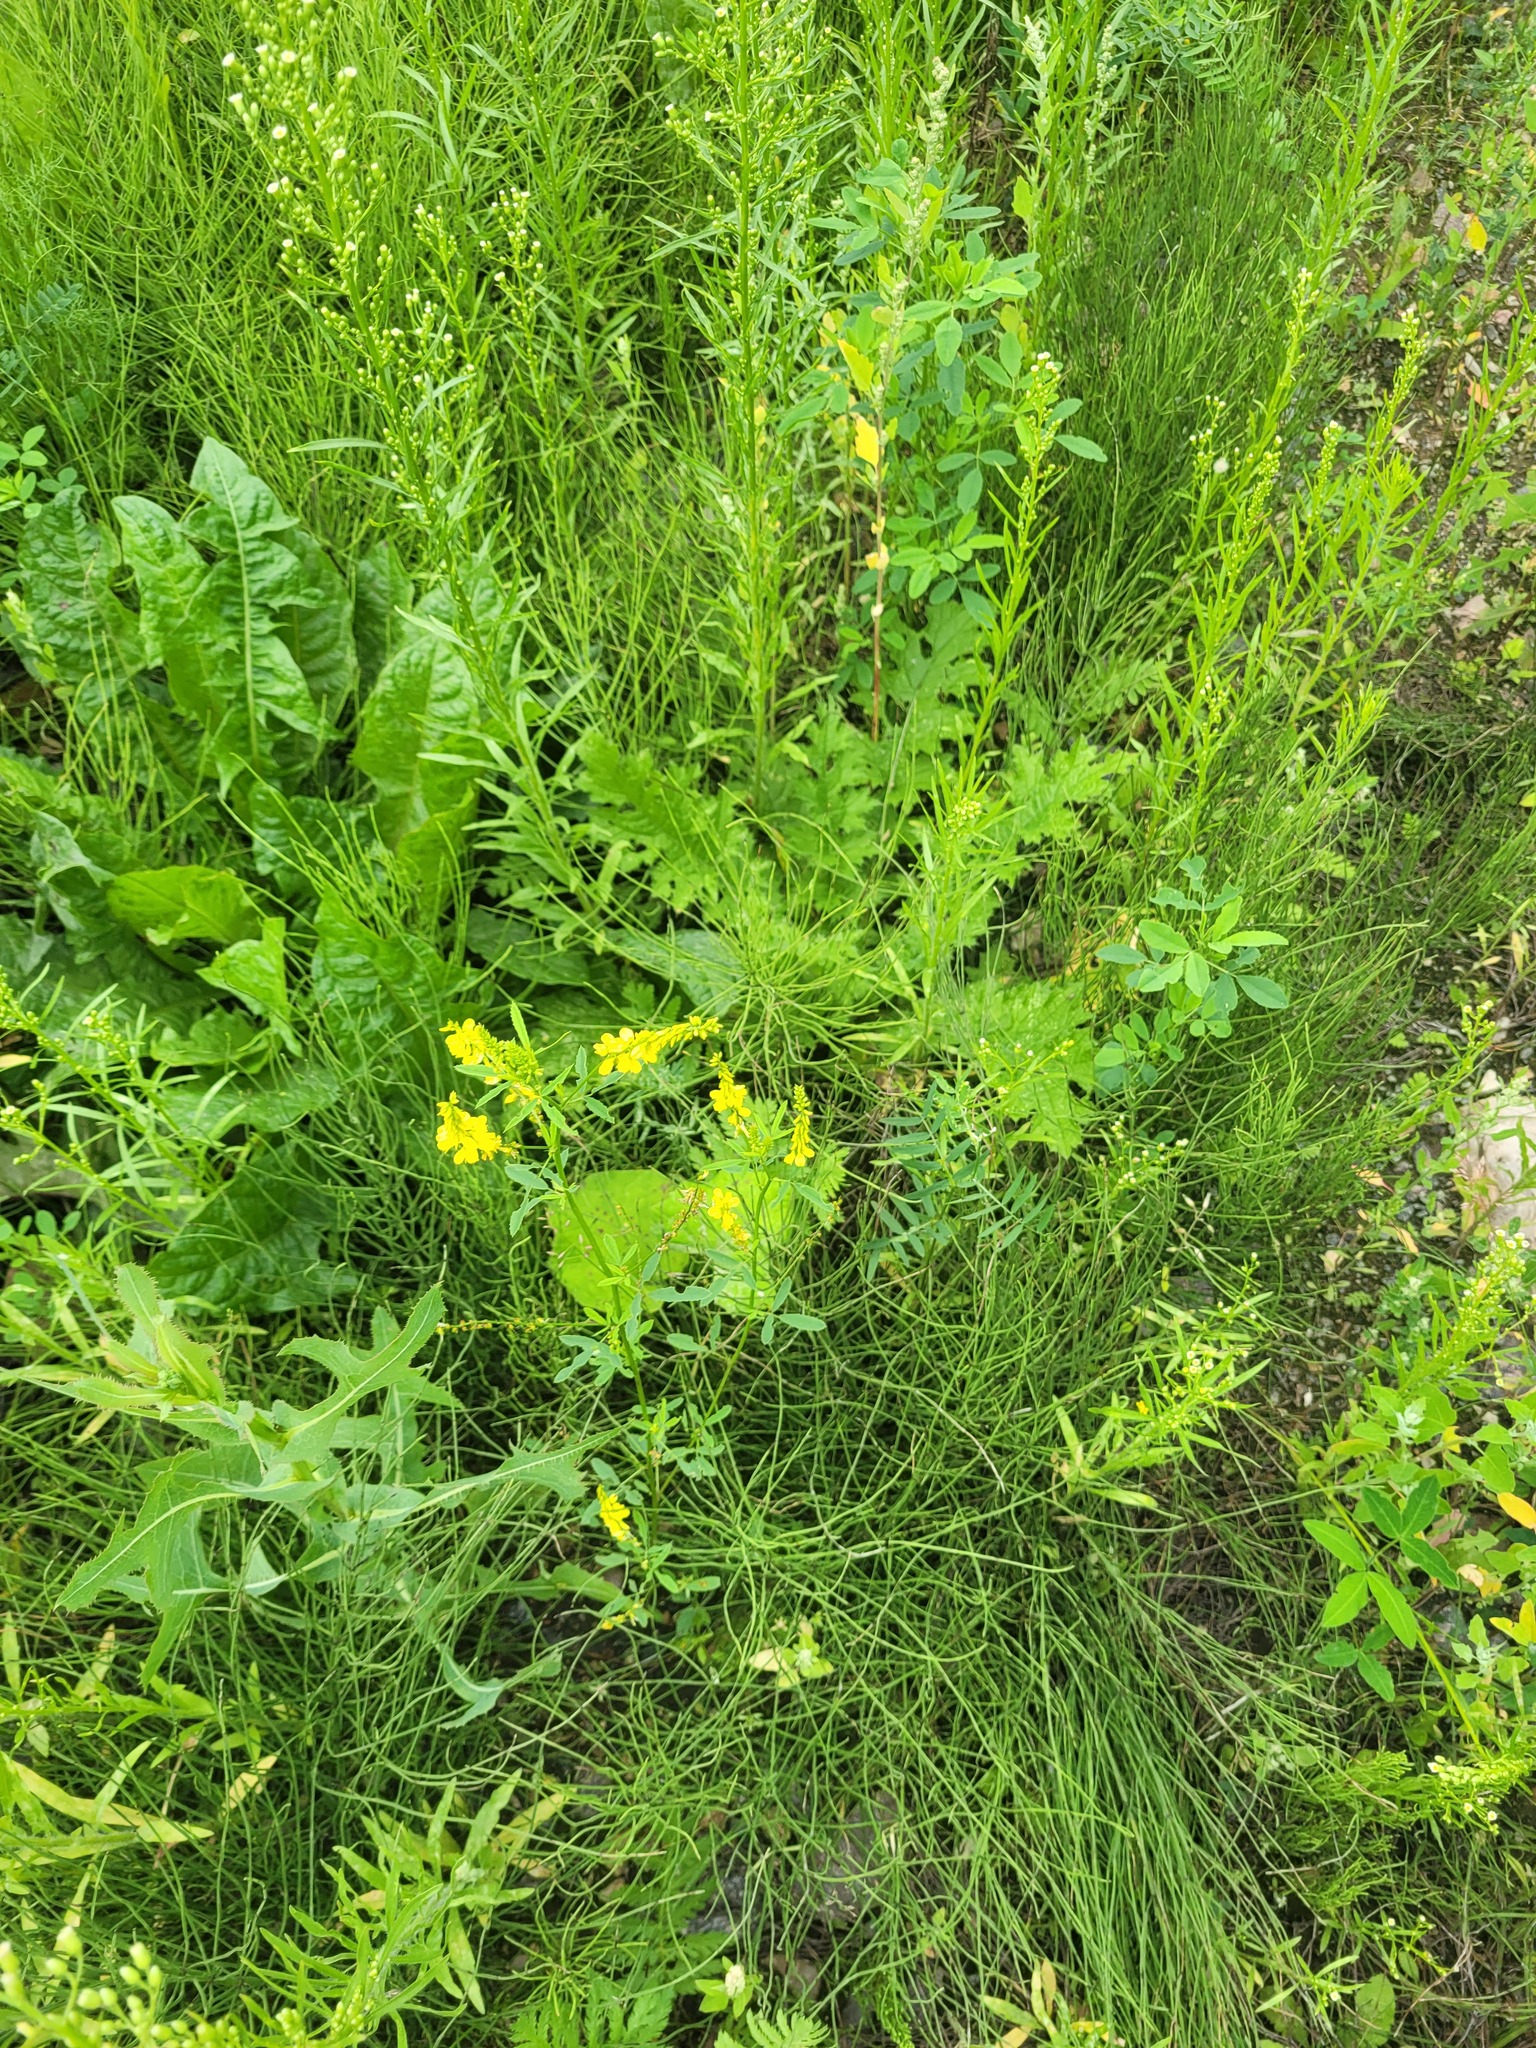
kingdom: Plantae
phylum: Tracheophyta
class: Magnoliopsida
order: Fabales
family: Fabaceae
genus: Melilotus
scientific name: Melilotus officinalis
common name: Sweetclover
